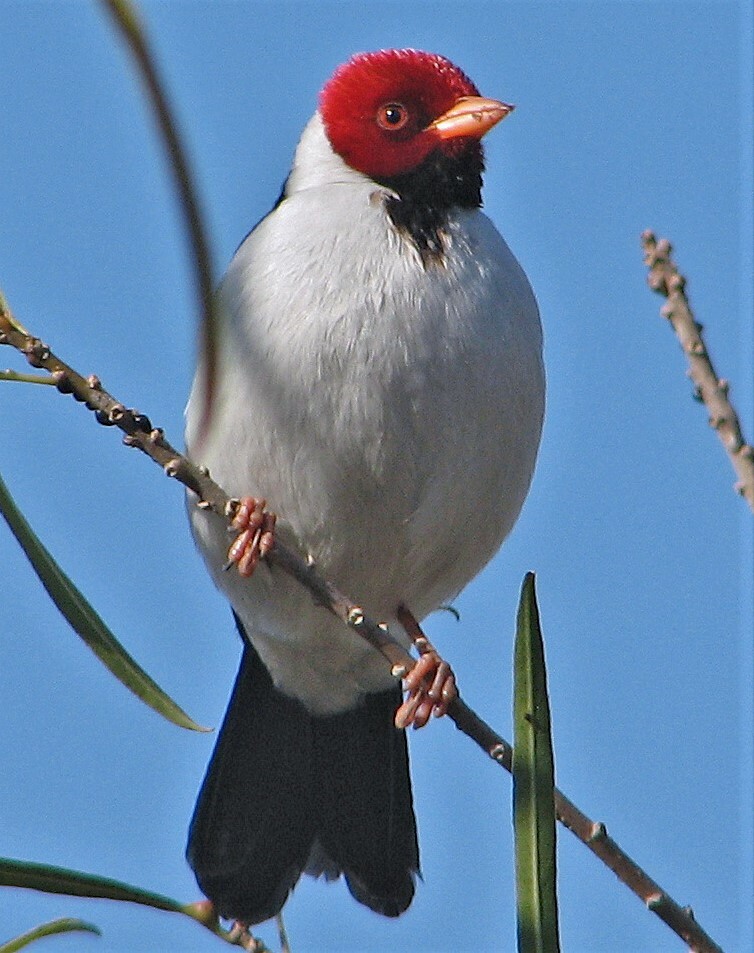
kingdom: Animalia
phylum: Chordata
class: Aves
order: Passeriformes
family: Thraupidae
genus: Paroaria
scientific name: Paroaria capitata
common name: Yellow-billed cardinal
